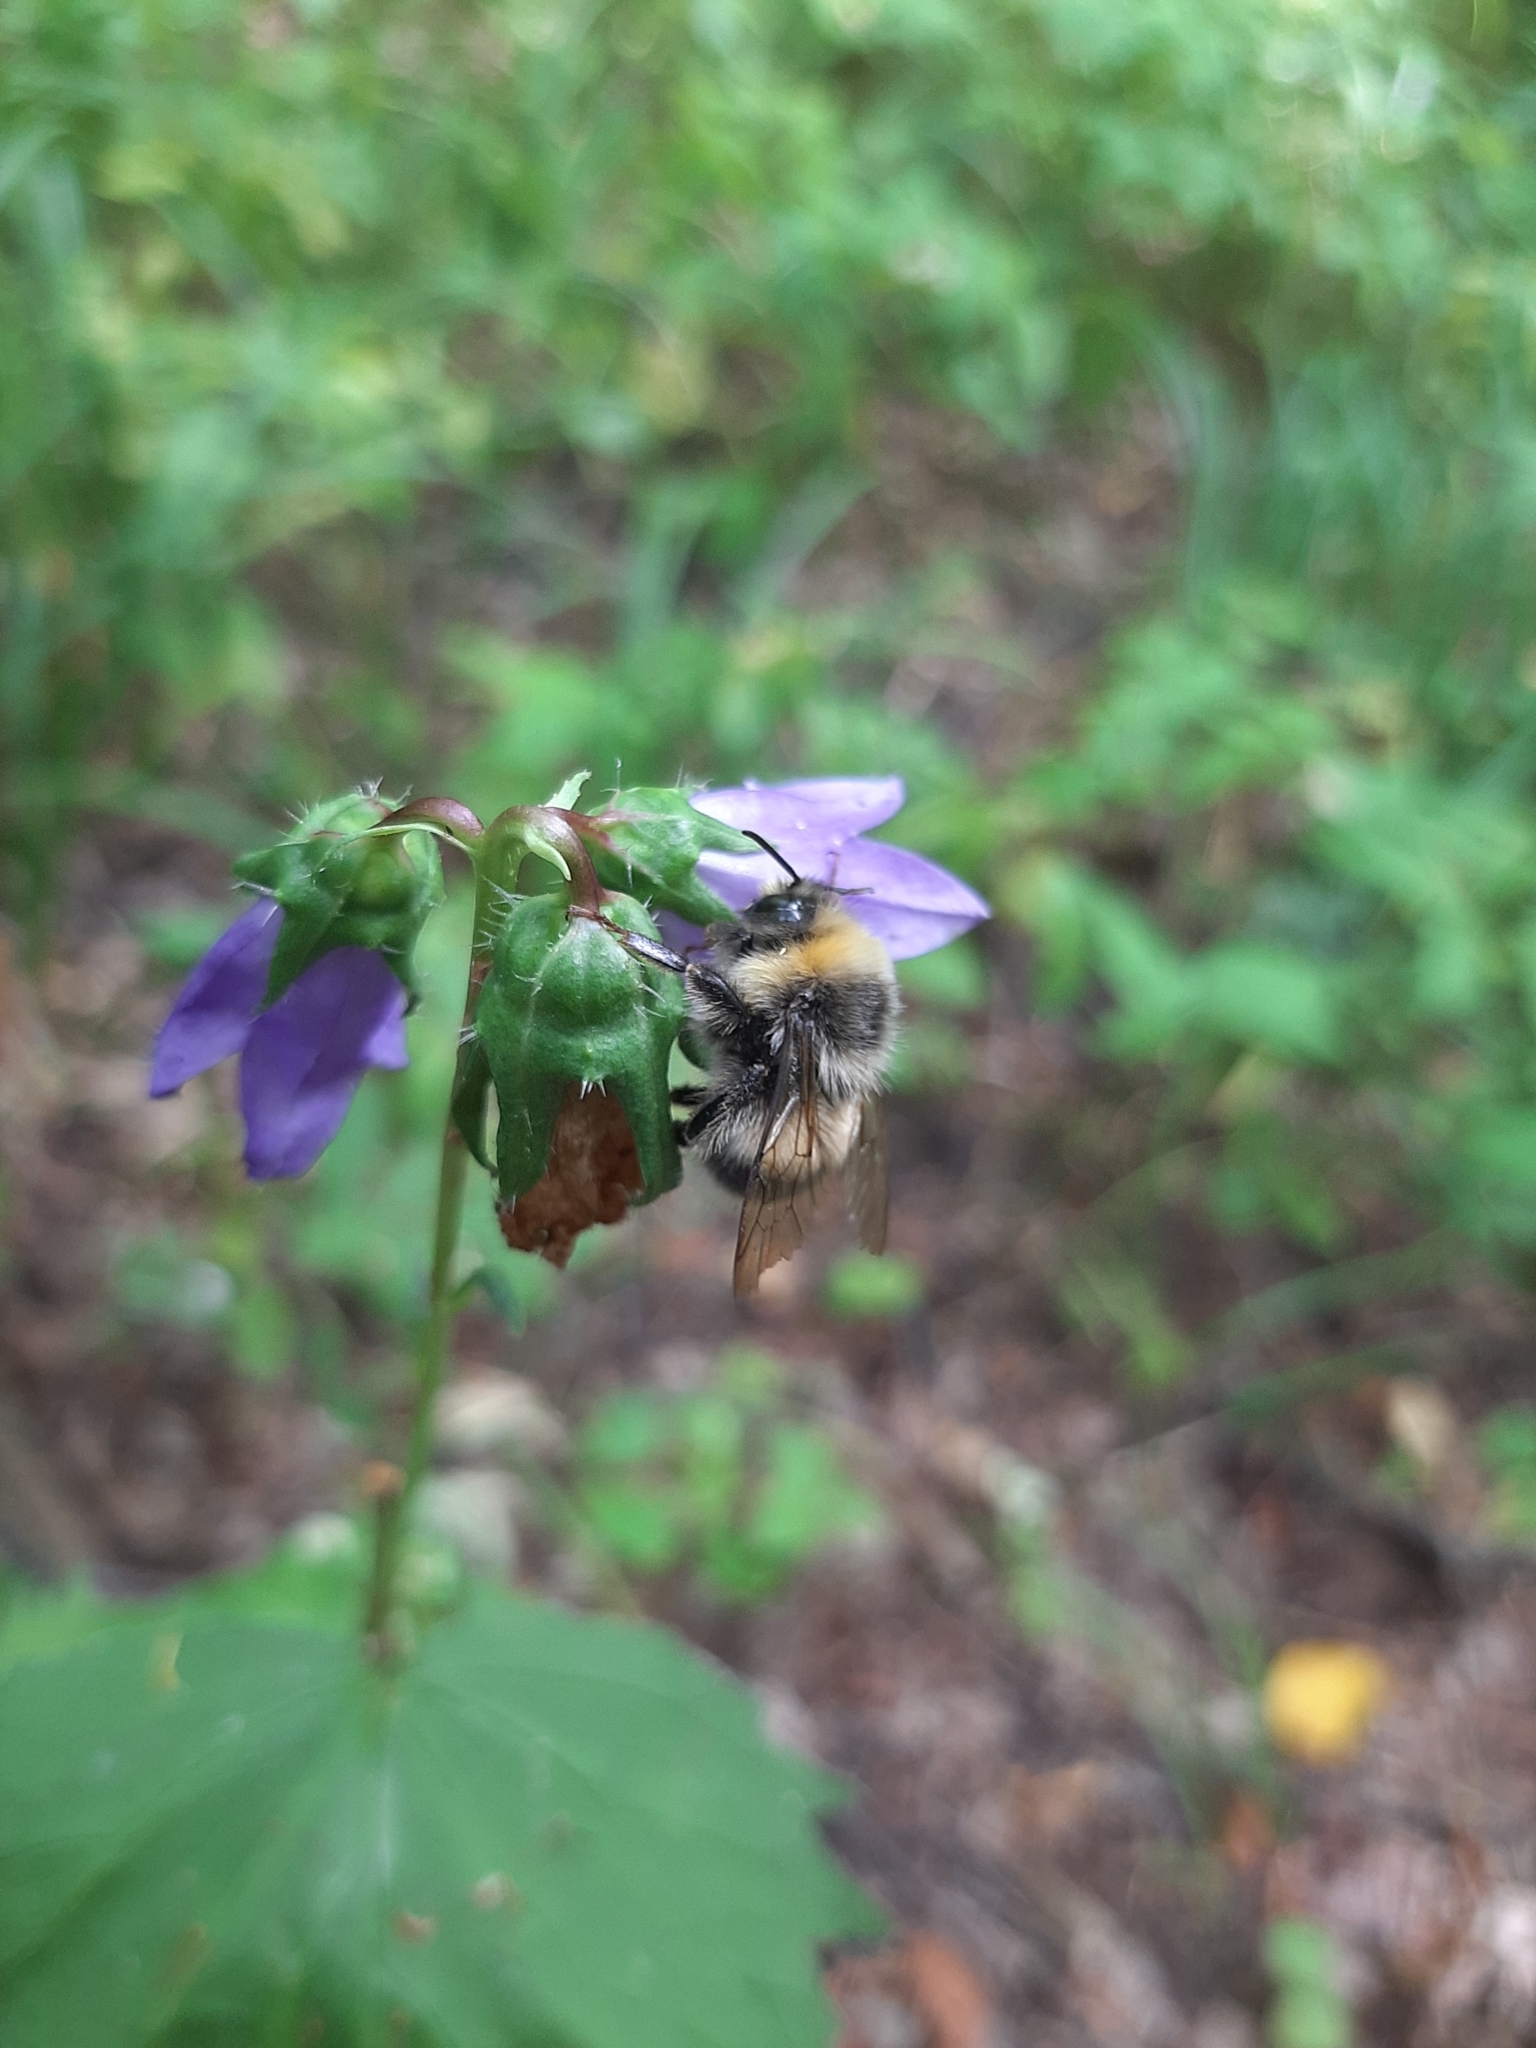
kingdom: Animalia
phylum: Arthropoda
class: Insecta
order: Hymenoptera
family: Apidae
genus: Bombus
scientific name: Bombus lucorum
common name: White-tailed bumblebee
